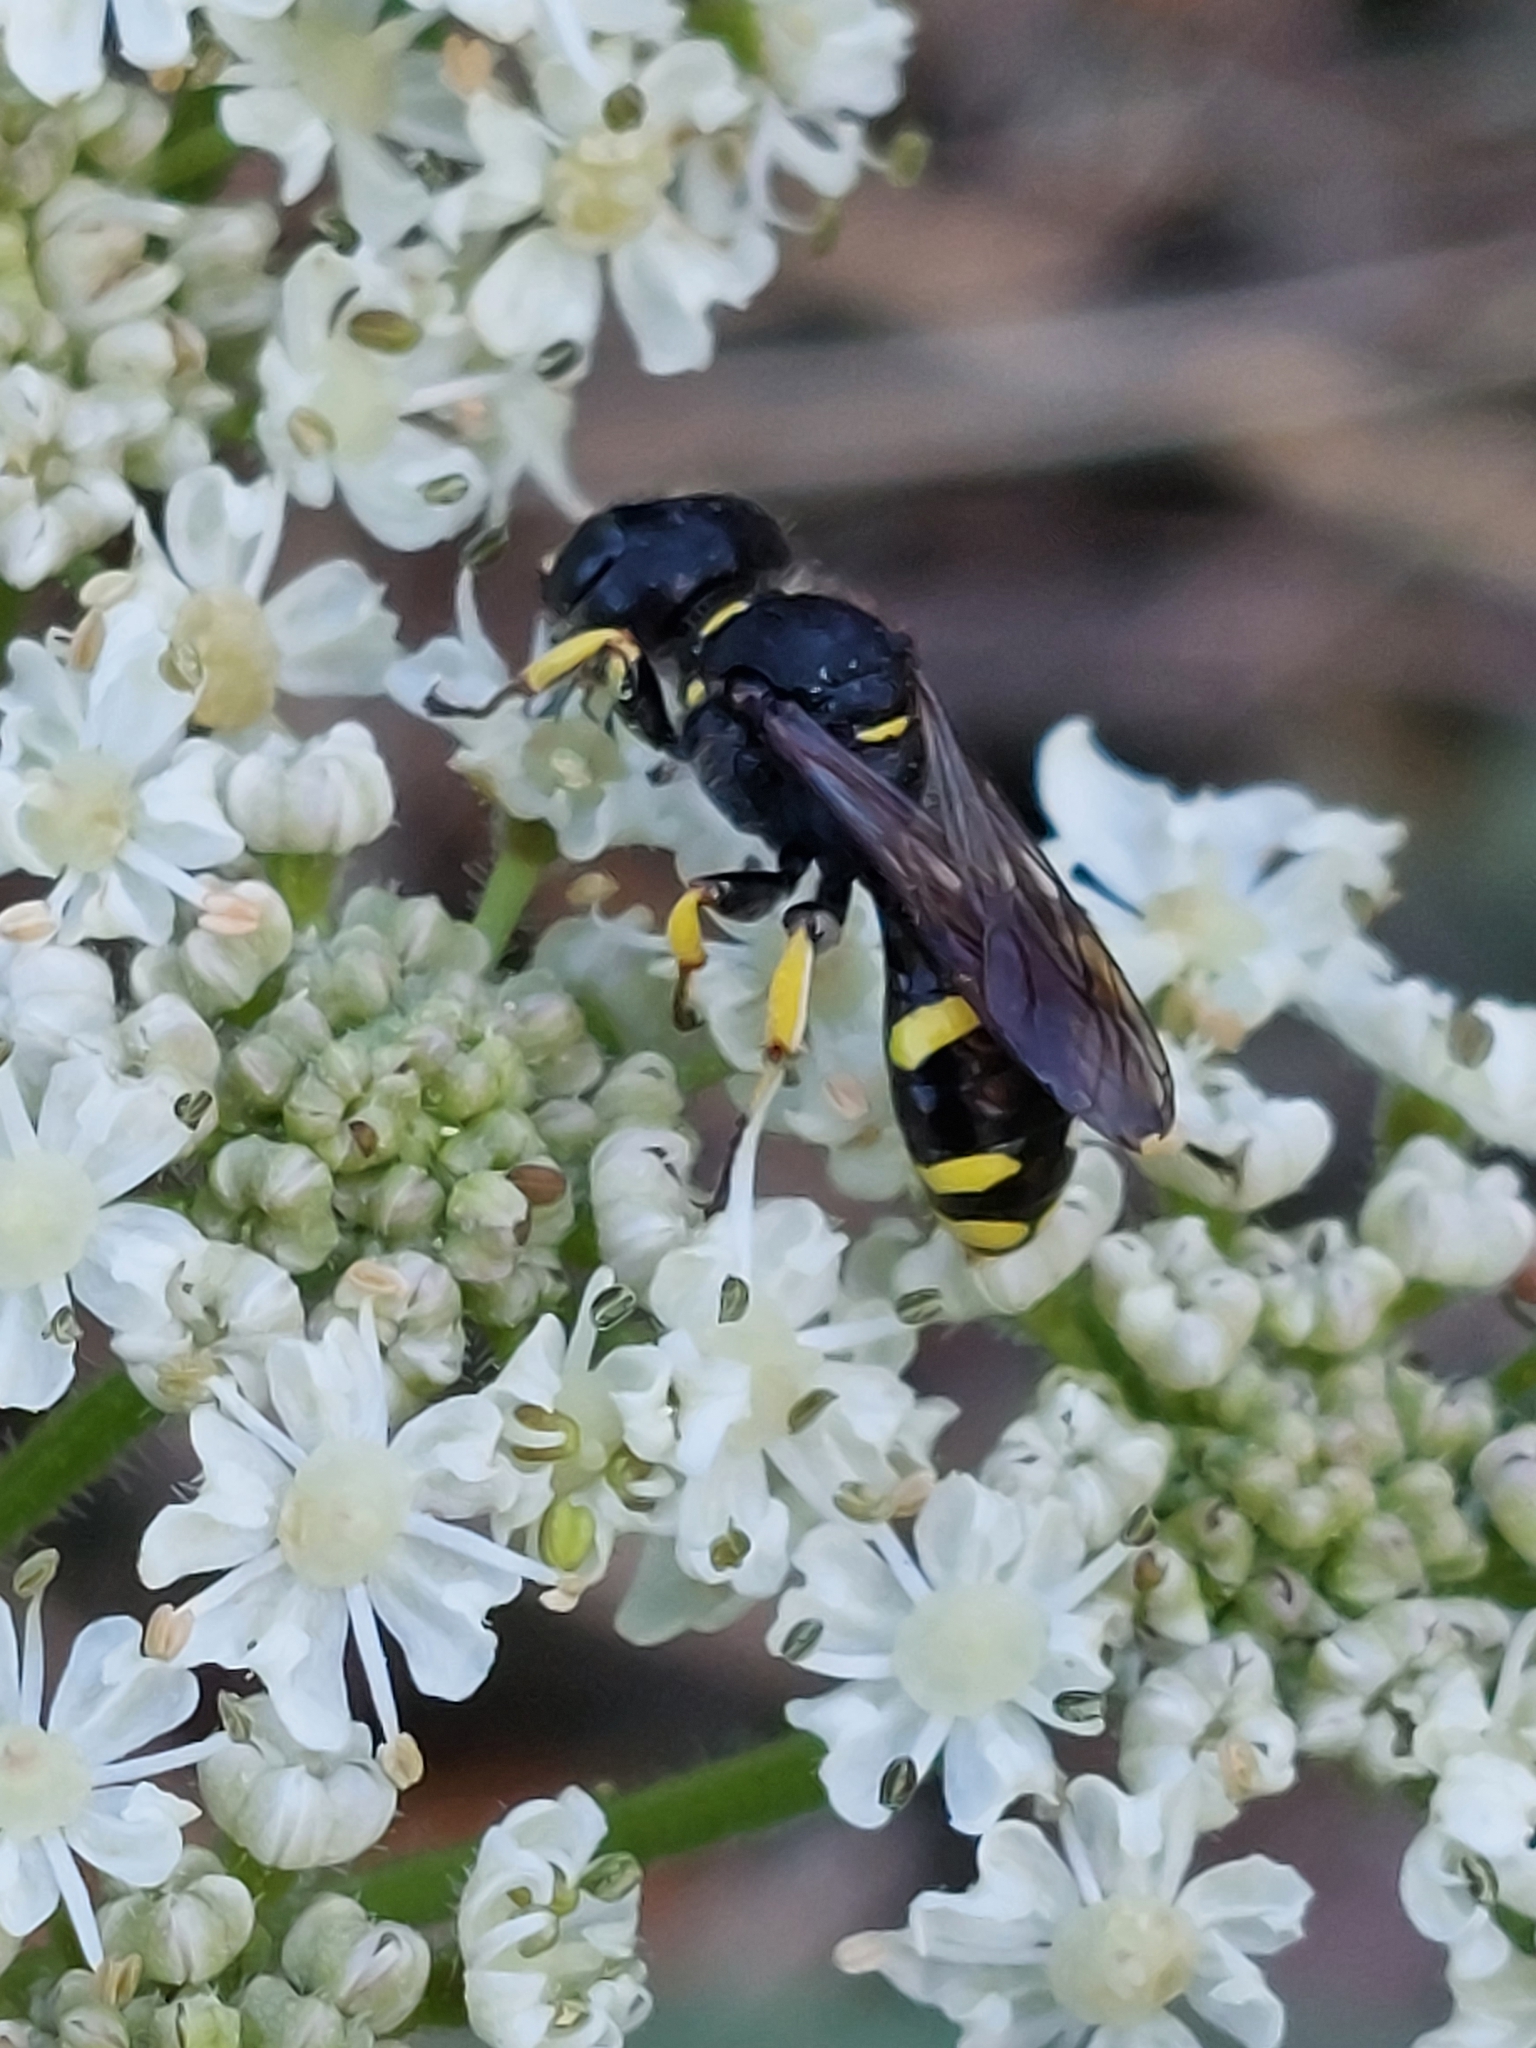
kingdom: Animalia
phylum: Arthropoda
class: Insecta
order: Hymenoptera
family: Crabronidae
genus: Ectemnius
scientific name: Ectemnius continuus
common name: Common ectemnius
